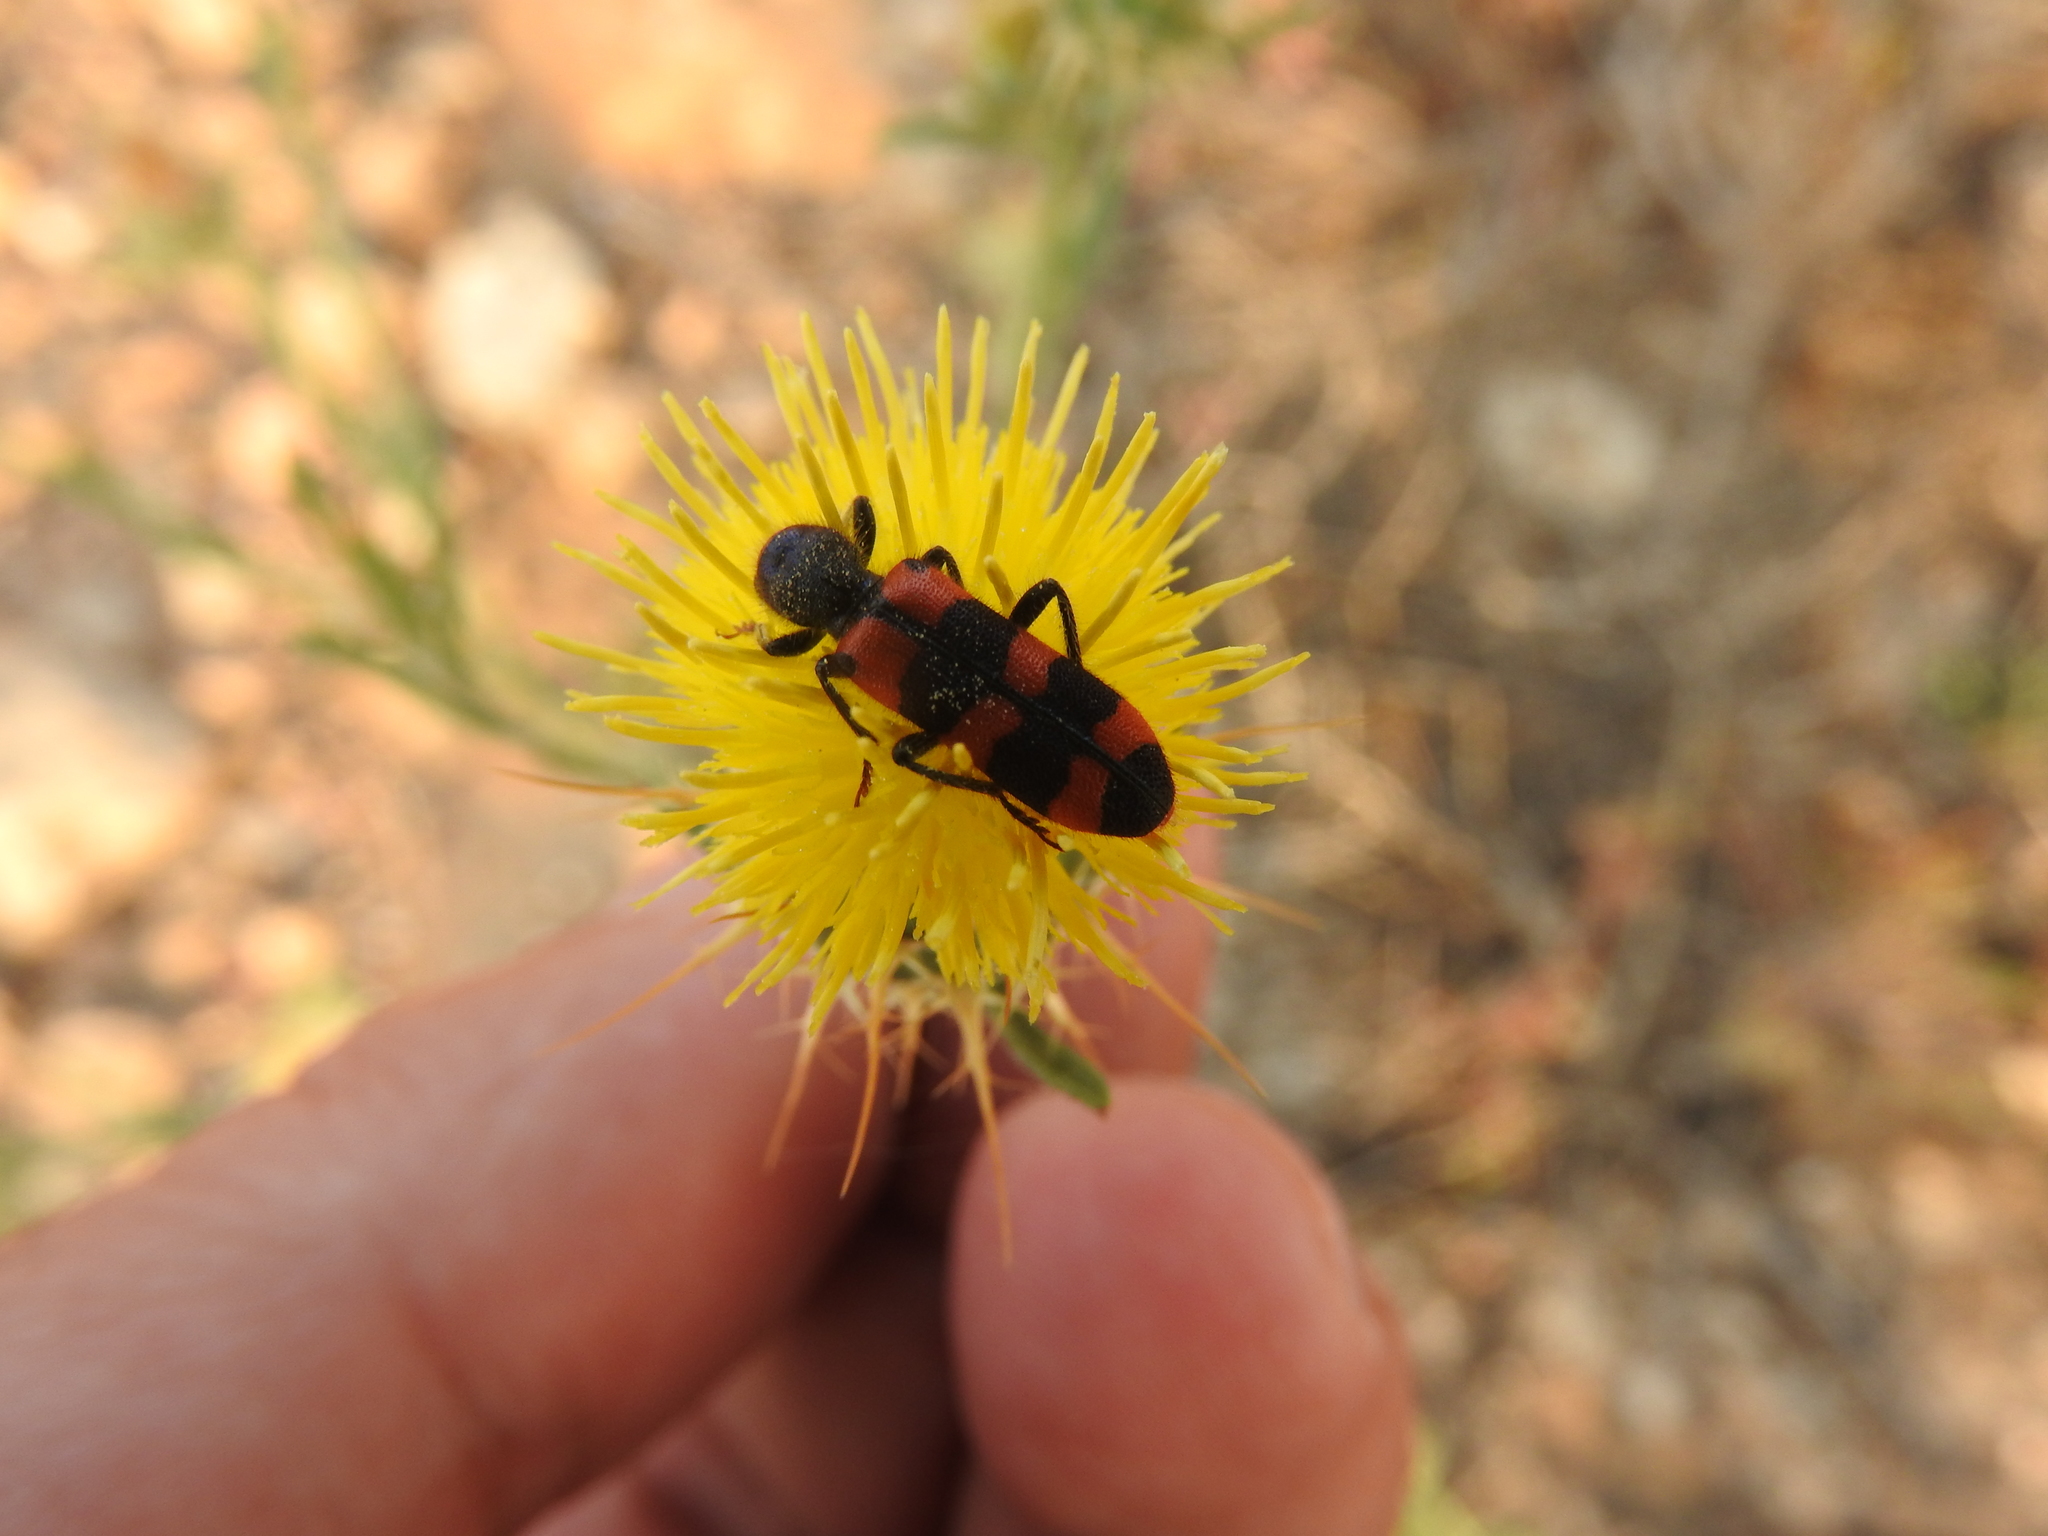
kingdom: Animalia
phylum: Arthropoda
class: Insecta
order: Coleoptera
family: Cleridae
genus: Trichodes
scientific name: Trichodes leucopsideus
